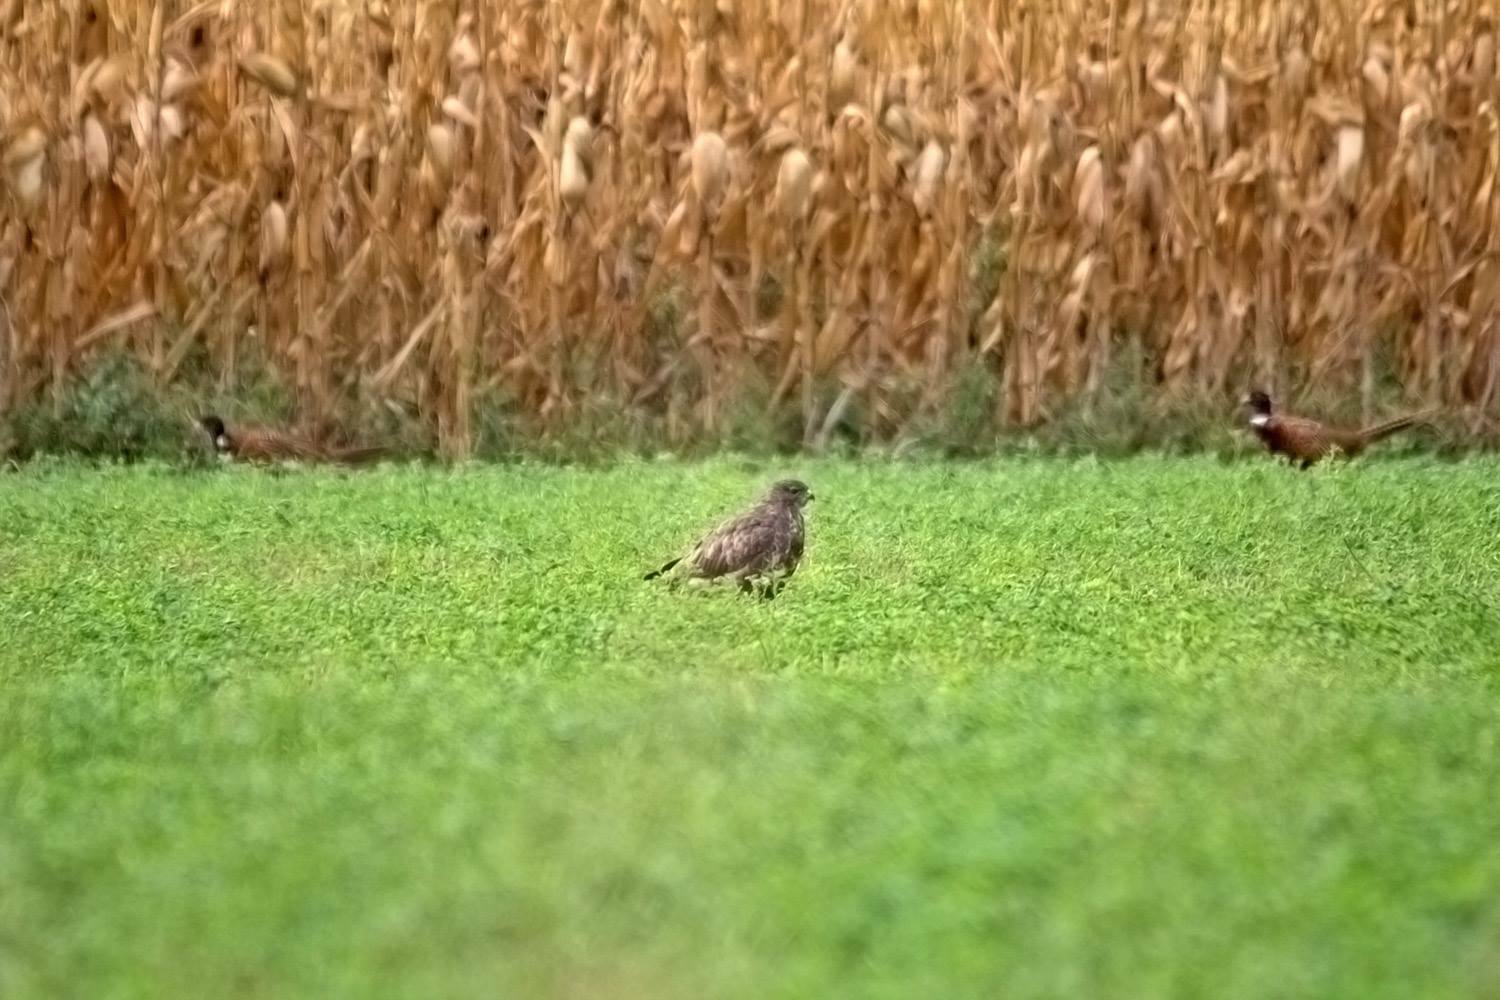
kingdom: Animalia
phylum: Chordata
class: Aves
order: Accipitriformes
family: Accipitridae
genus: Buteo
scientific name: Buteo buteo
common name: Common buzzard
